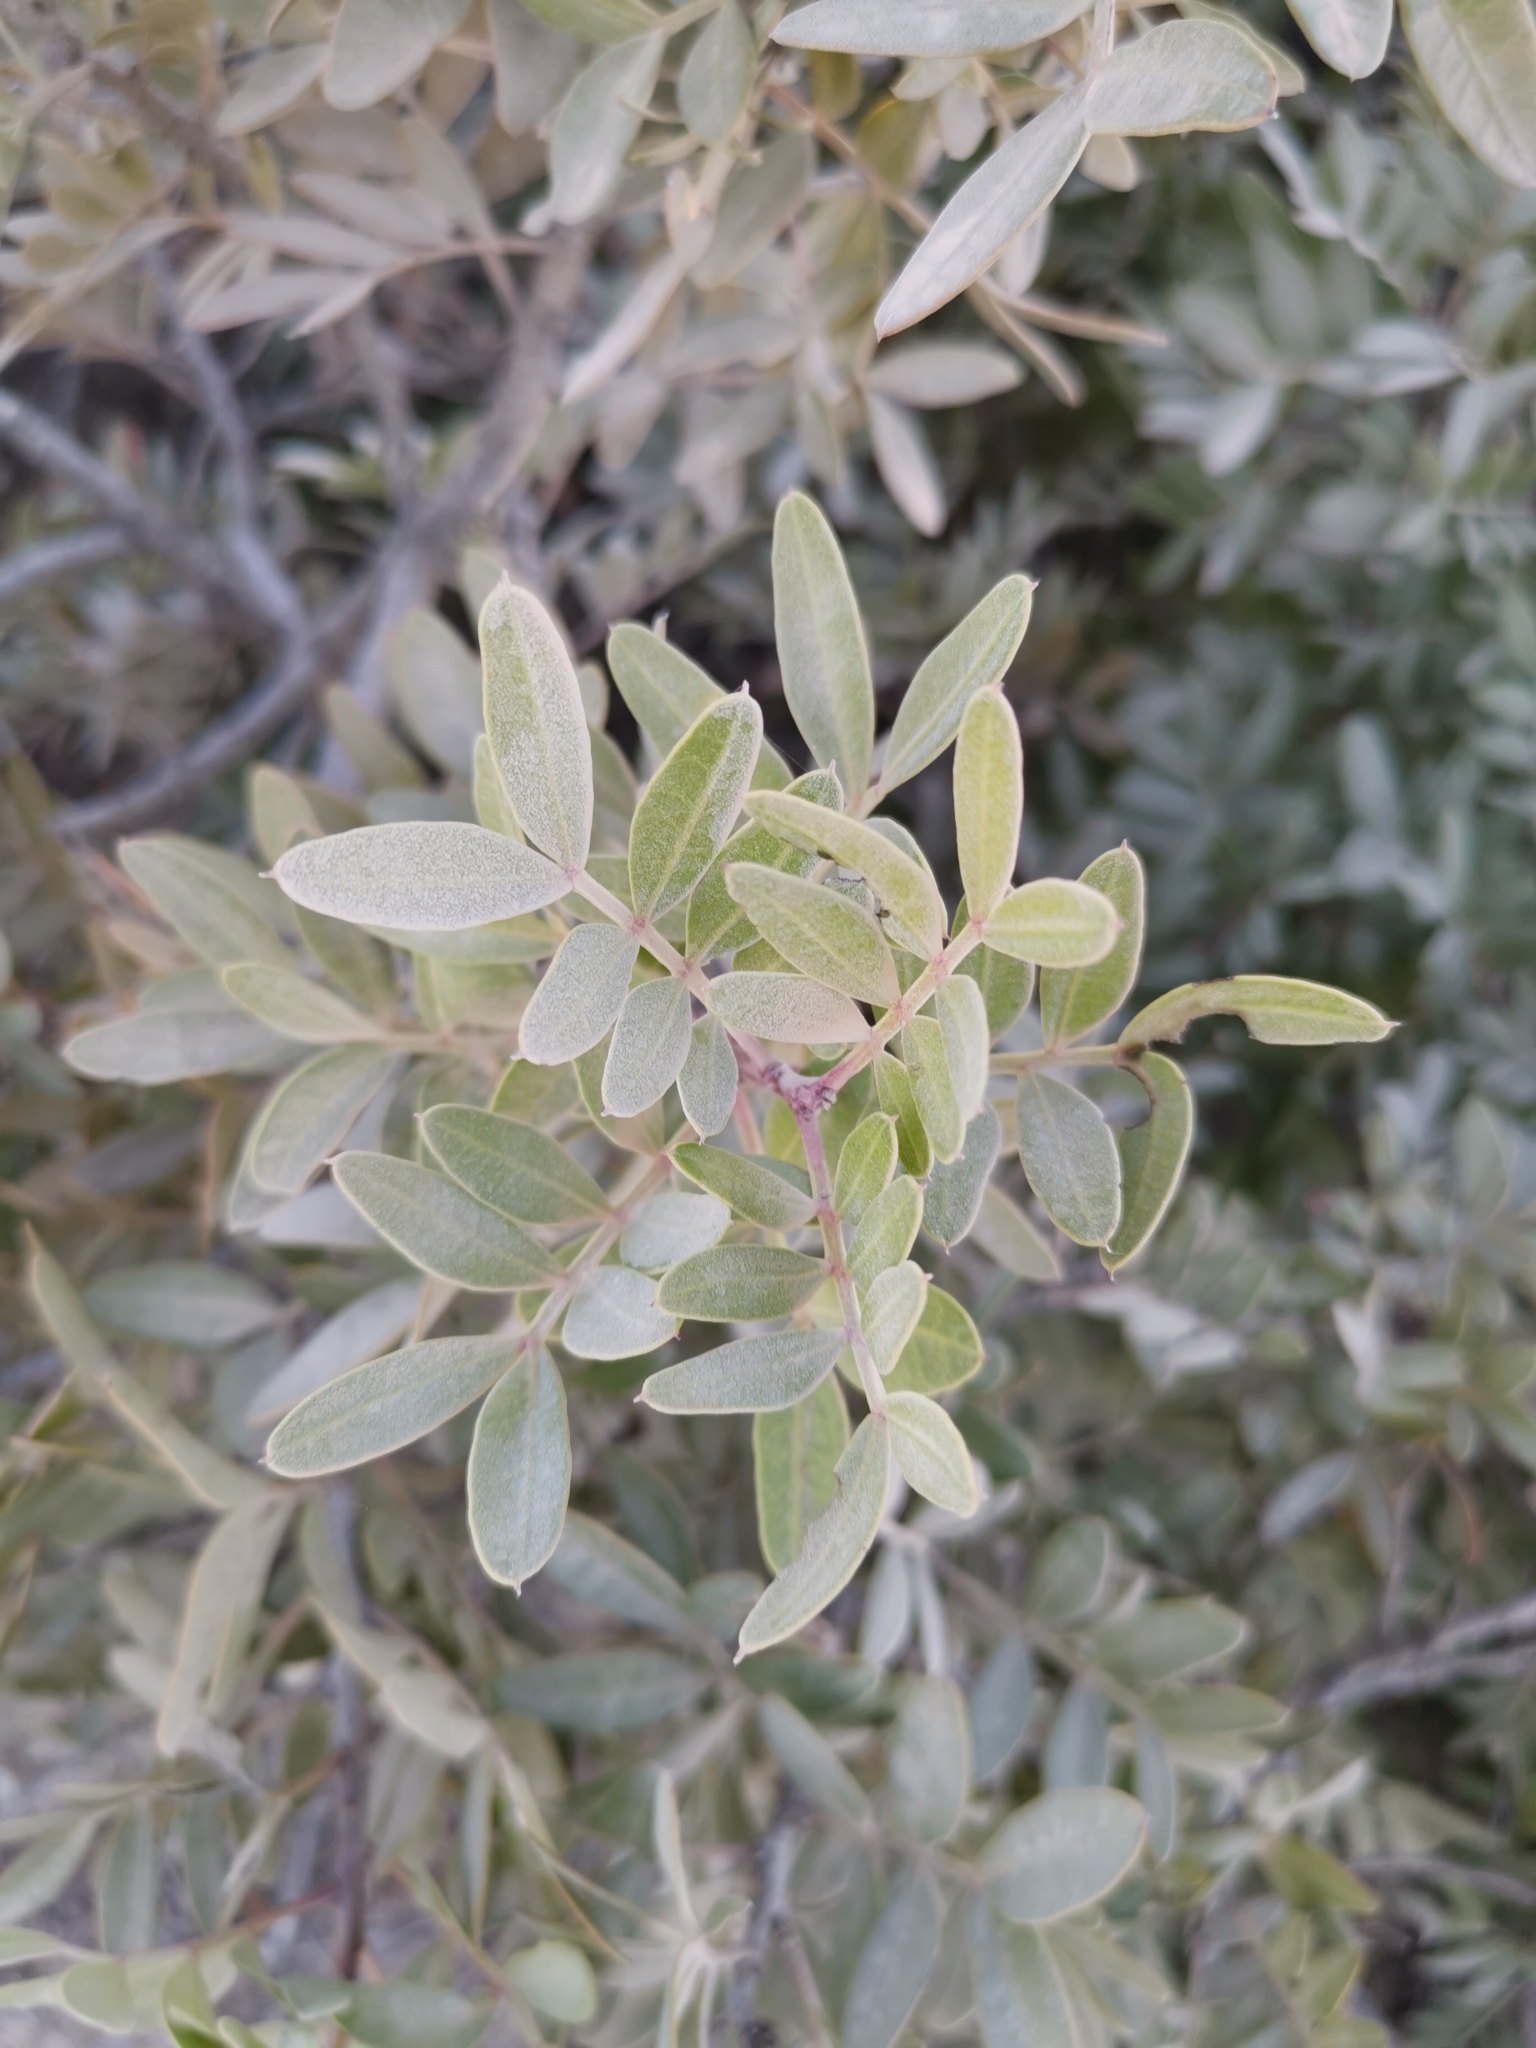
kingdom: Plantae
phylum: Tracheophyta
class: Magnoliopsida
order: Sapindales
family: Anacardiaceae
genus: Pistacia
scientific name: Pistacia lentiscus
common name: Lentisk
